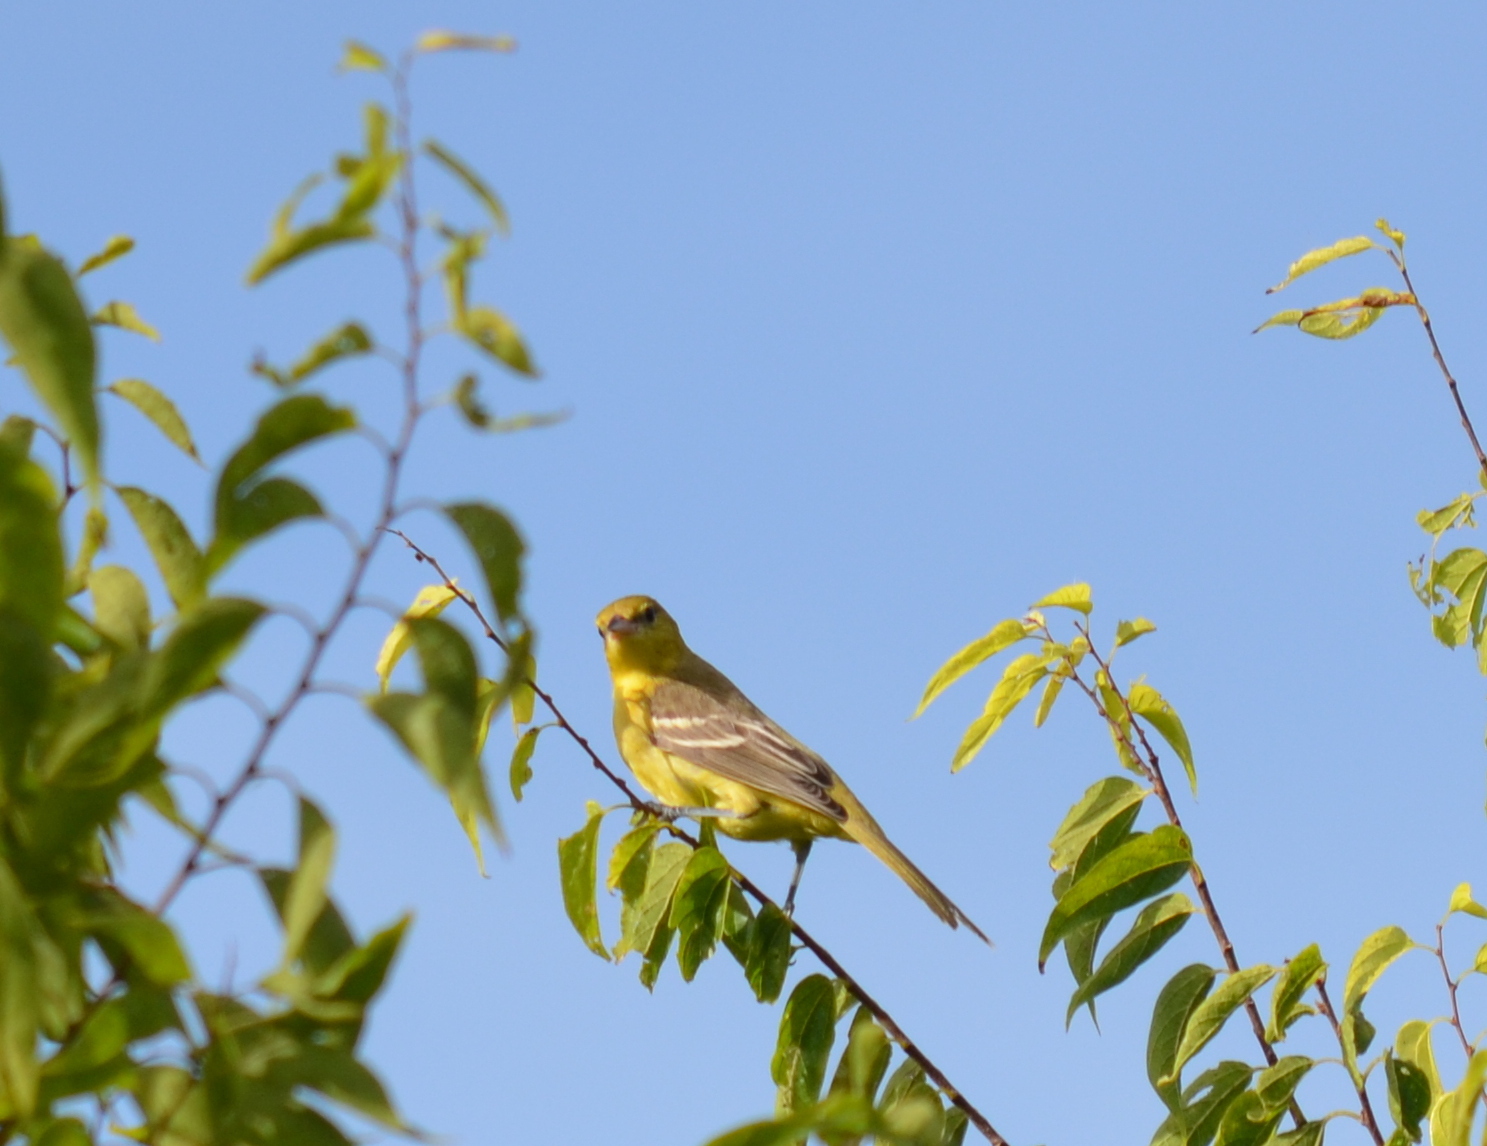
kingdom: Animalia
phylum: Chordata
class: Aves
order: Passeriformes
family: Icteridae
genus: Icterus
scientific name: Icterus spurius
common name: Orchard oriole
